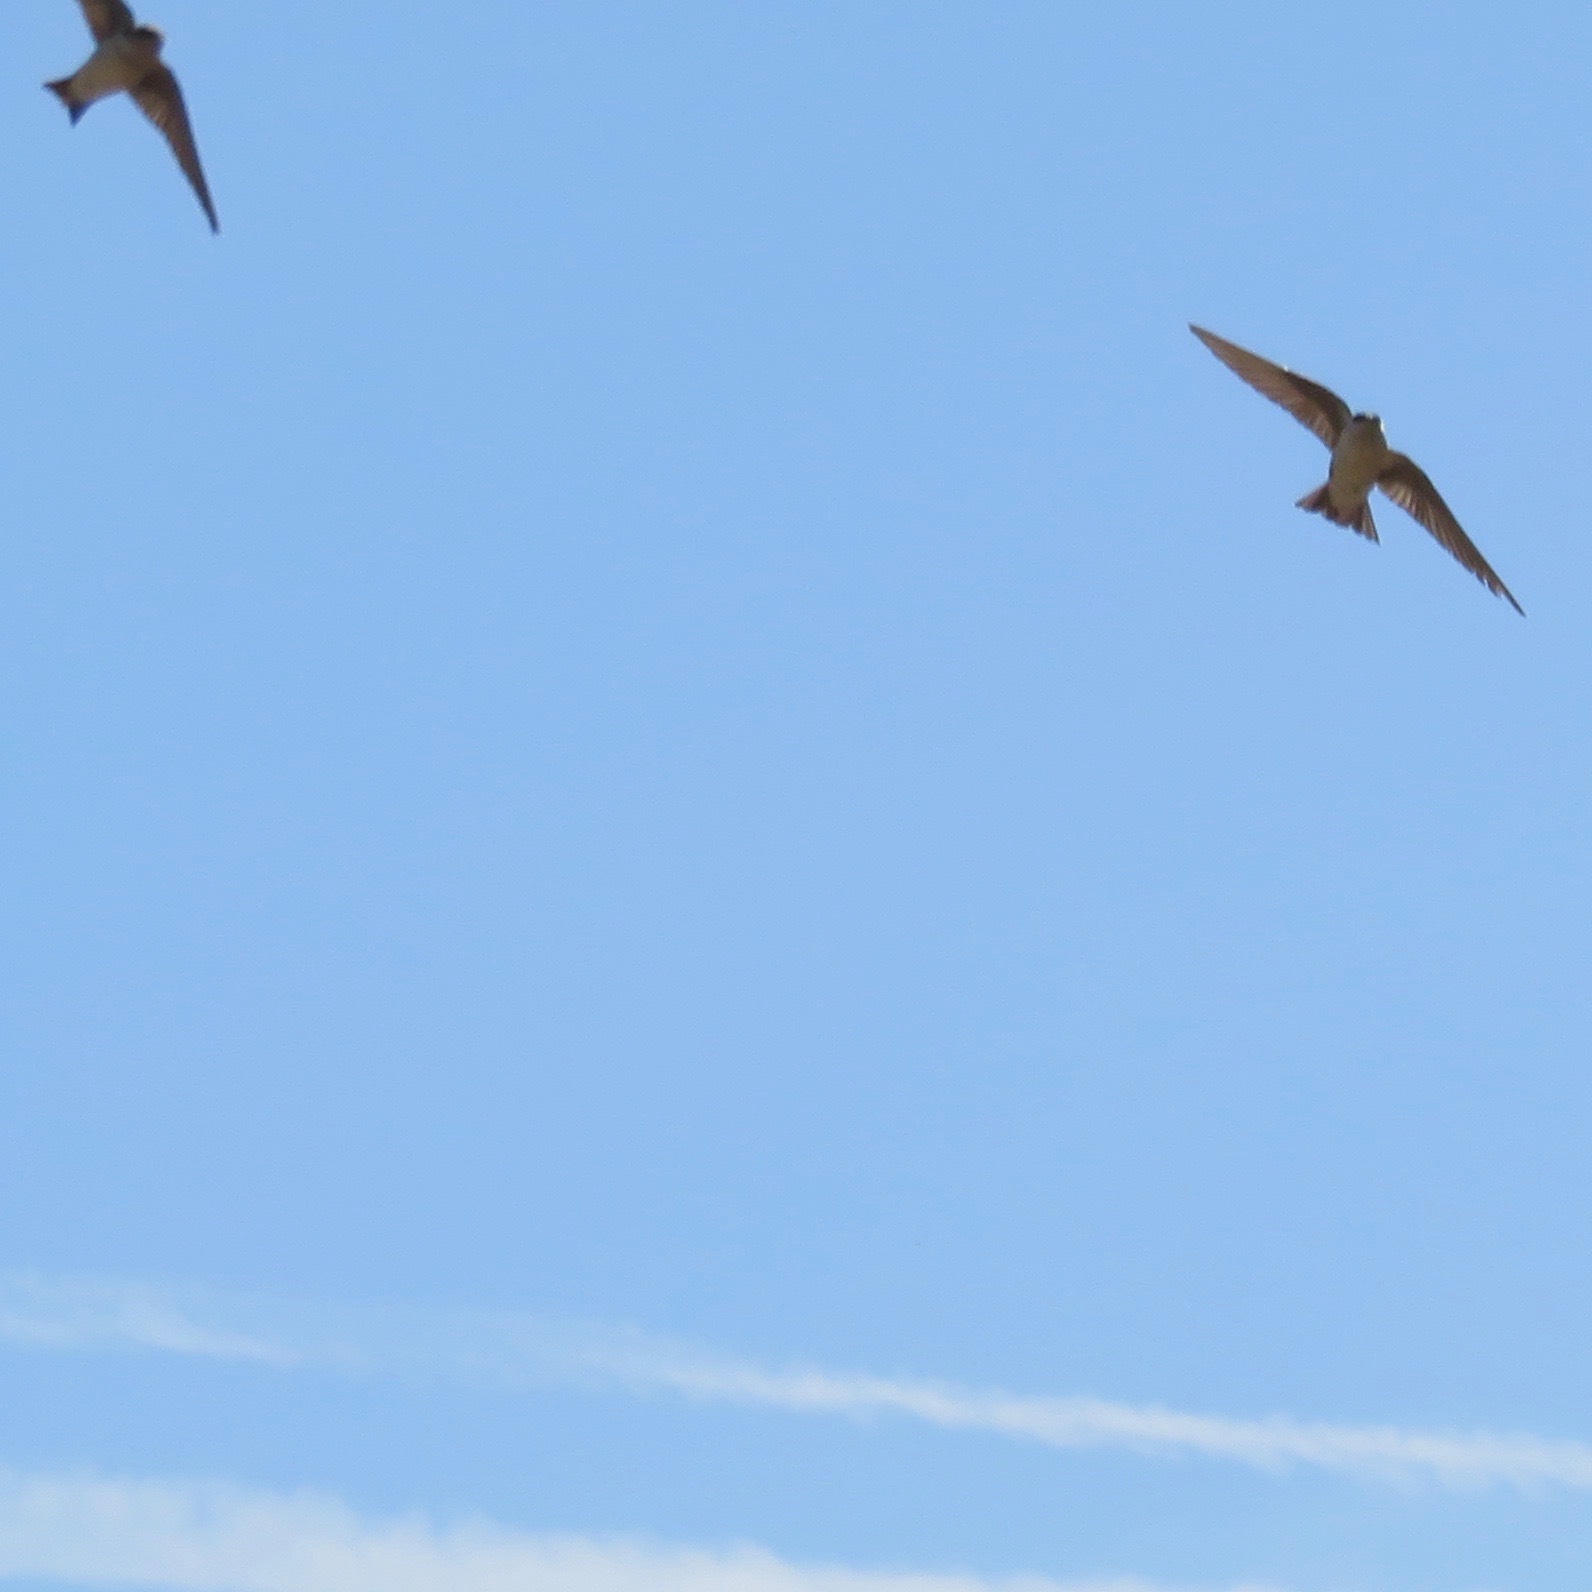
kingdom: Animalia
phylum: Chordata
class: Aves
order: Passeriformes
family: Hirundinidae
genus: Tachycineta
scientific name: Tachycineta thalassina
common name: Violet-green swallow
